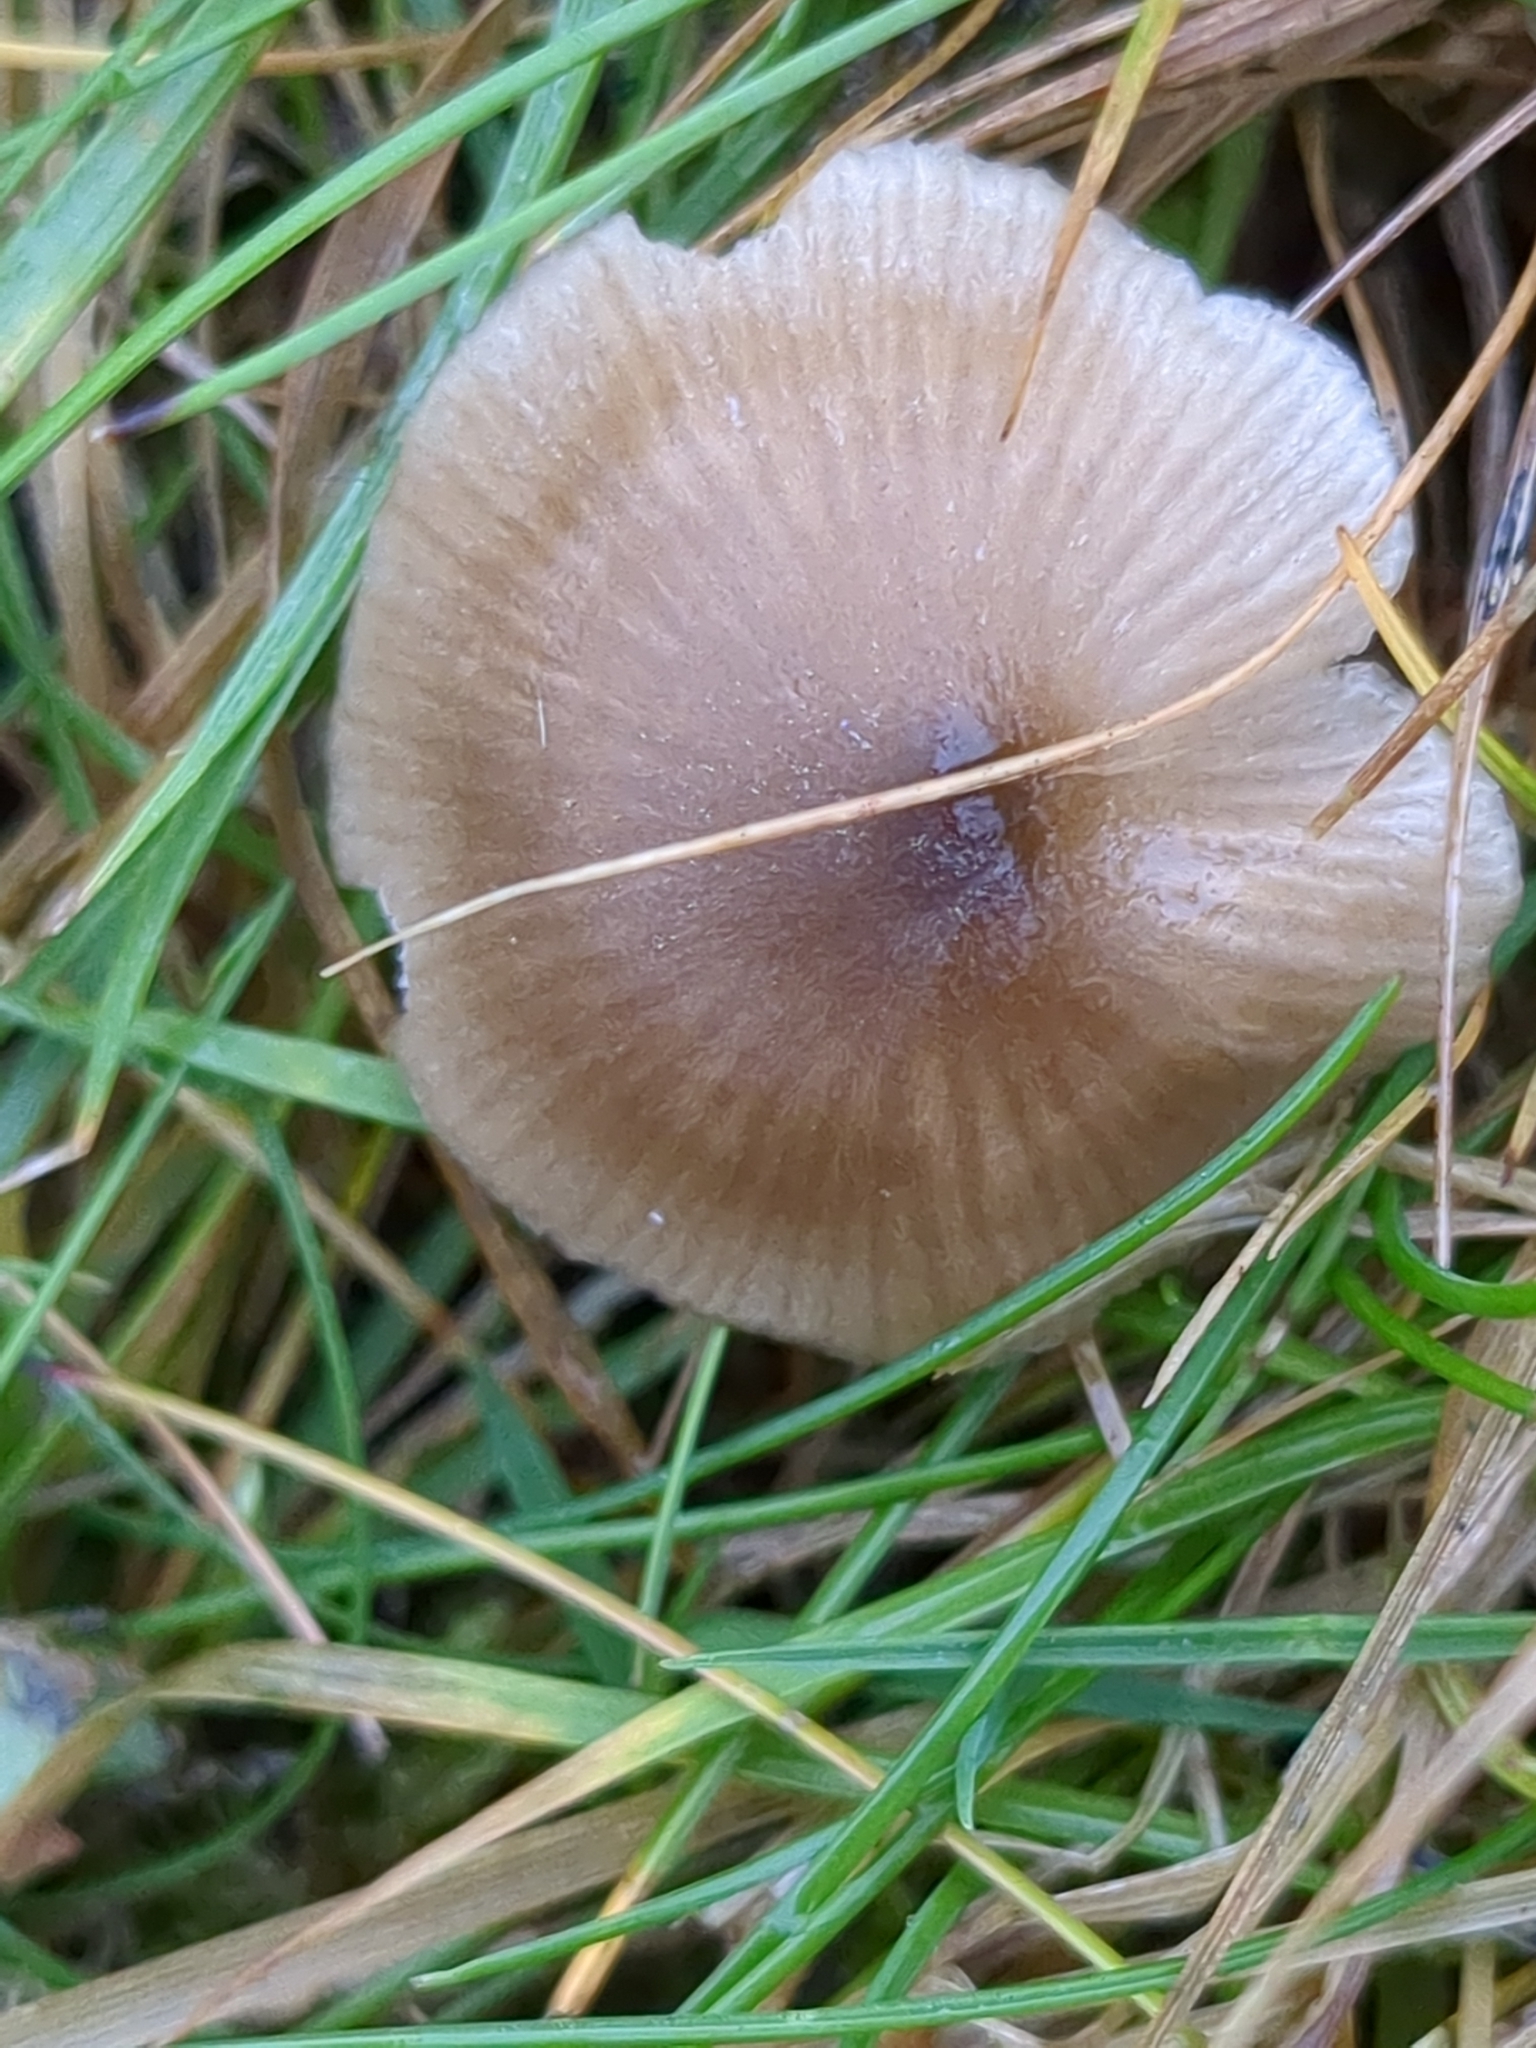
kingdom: Fungi
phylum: Basidiomycota
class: Agaricomycetes
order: Agaricales
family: Entolomataceae
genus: Entoloma
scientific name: Entoloma conferendum
